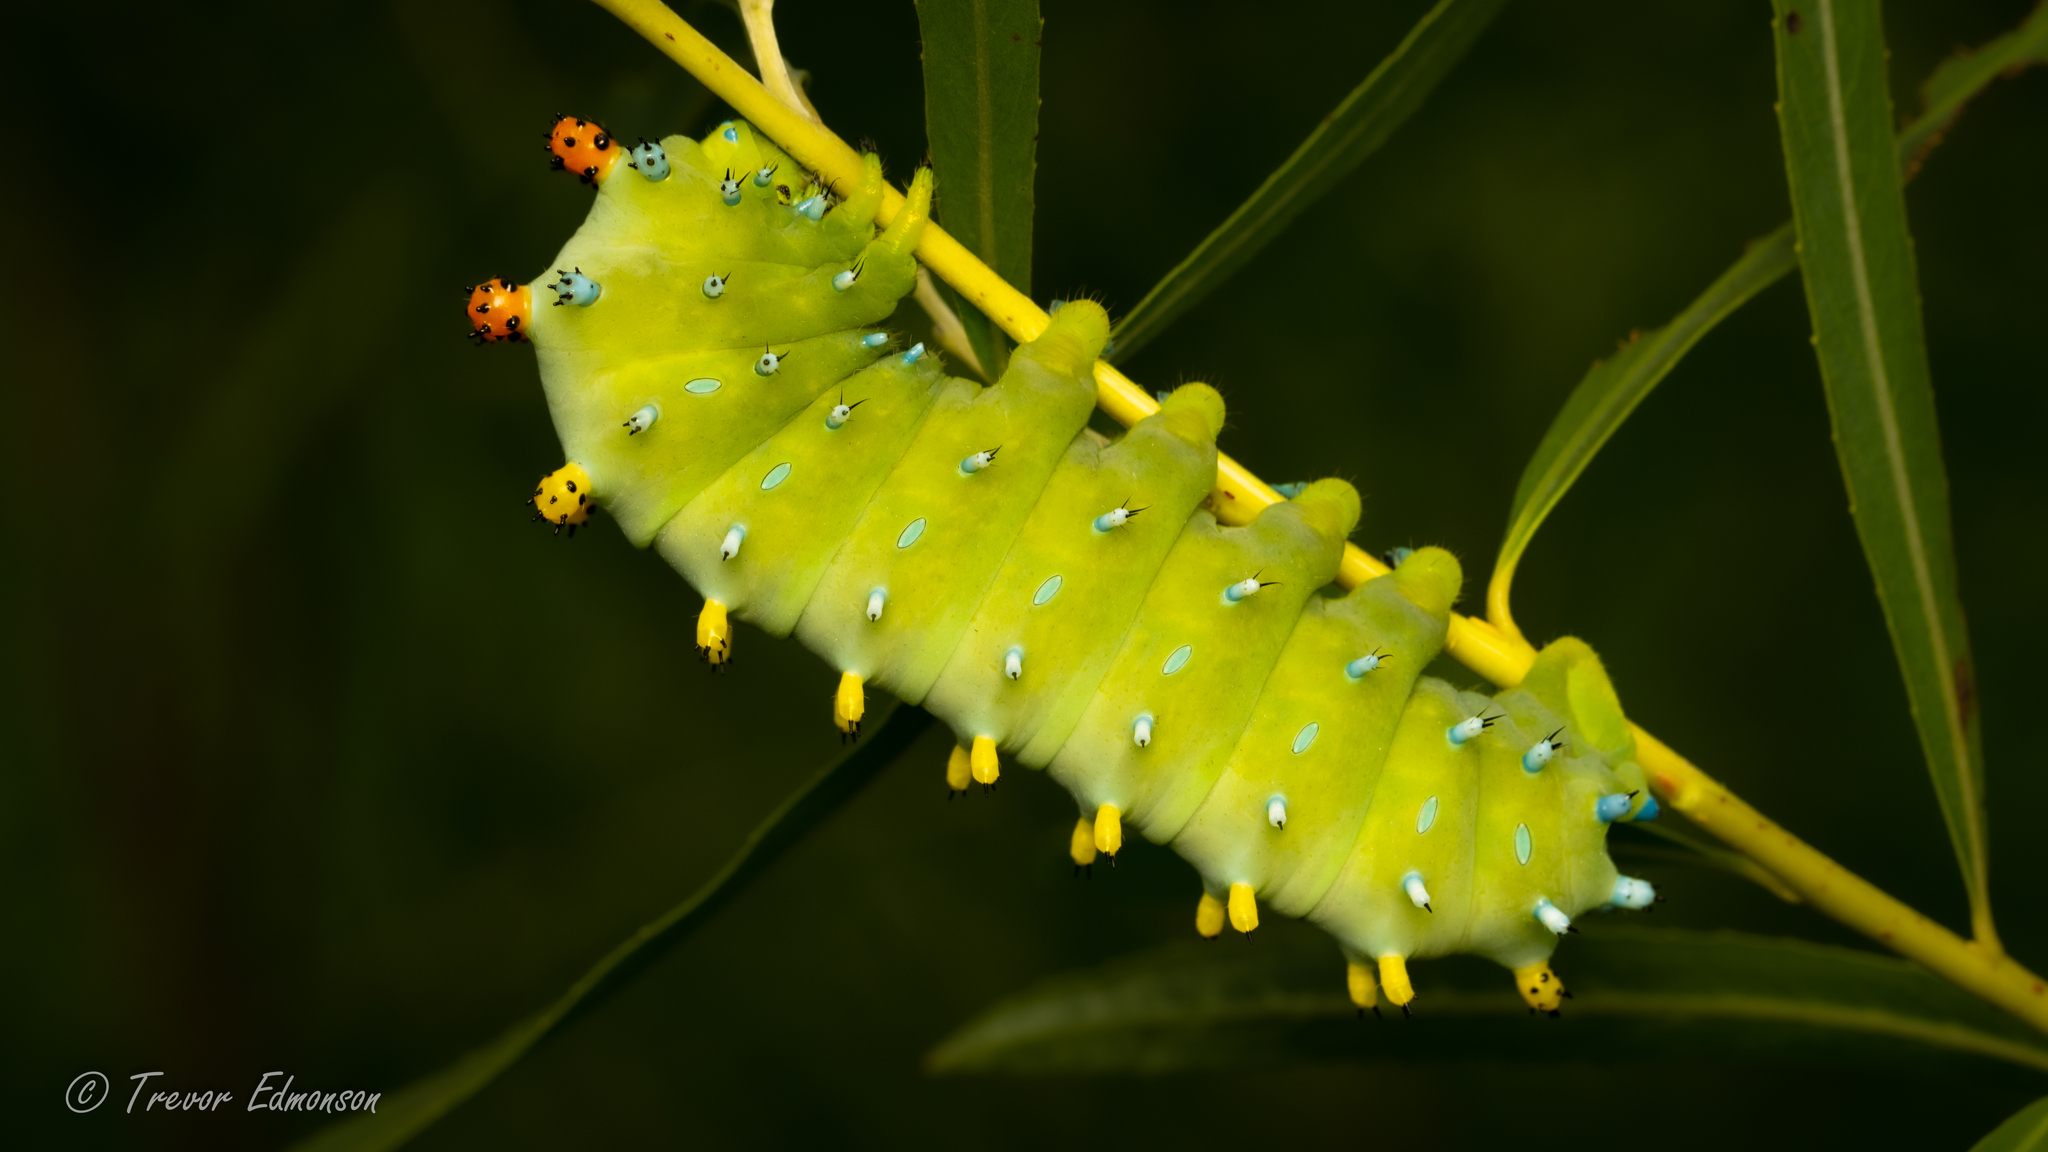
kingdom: Animalia
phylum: Arthropoda
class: Insecta
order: Lepidoptera
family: Saturniidae
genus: Hyalophora
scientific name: Hyalophora cecropia
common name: Cecropia silkmoth
